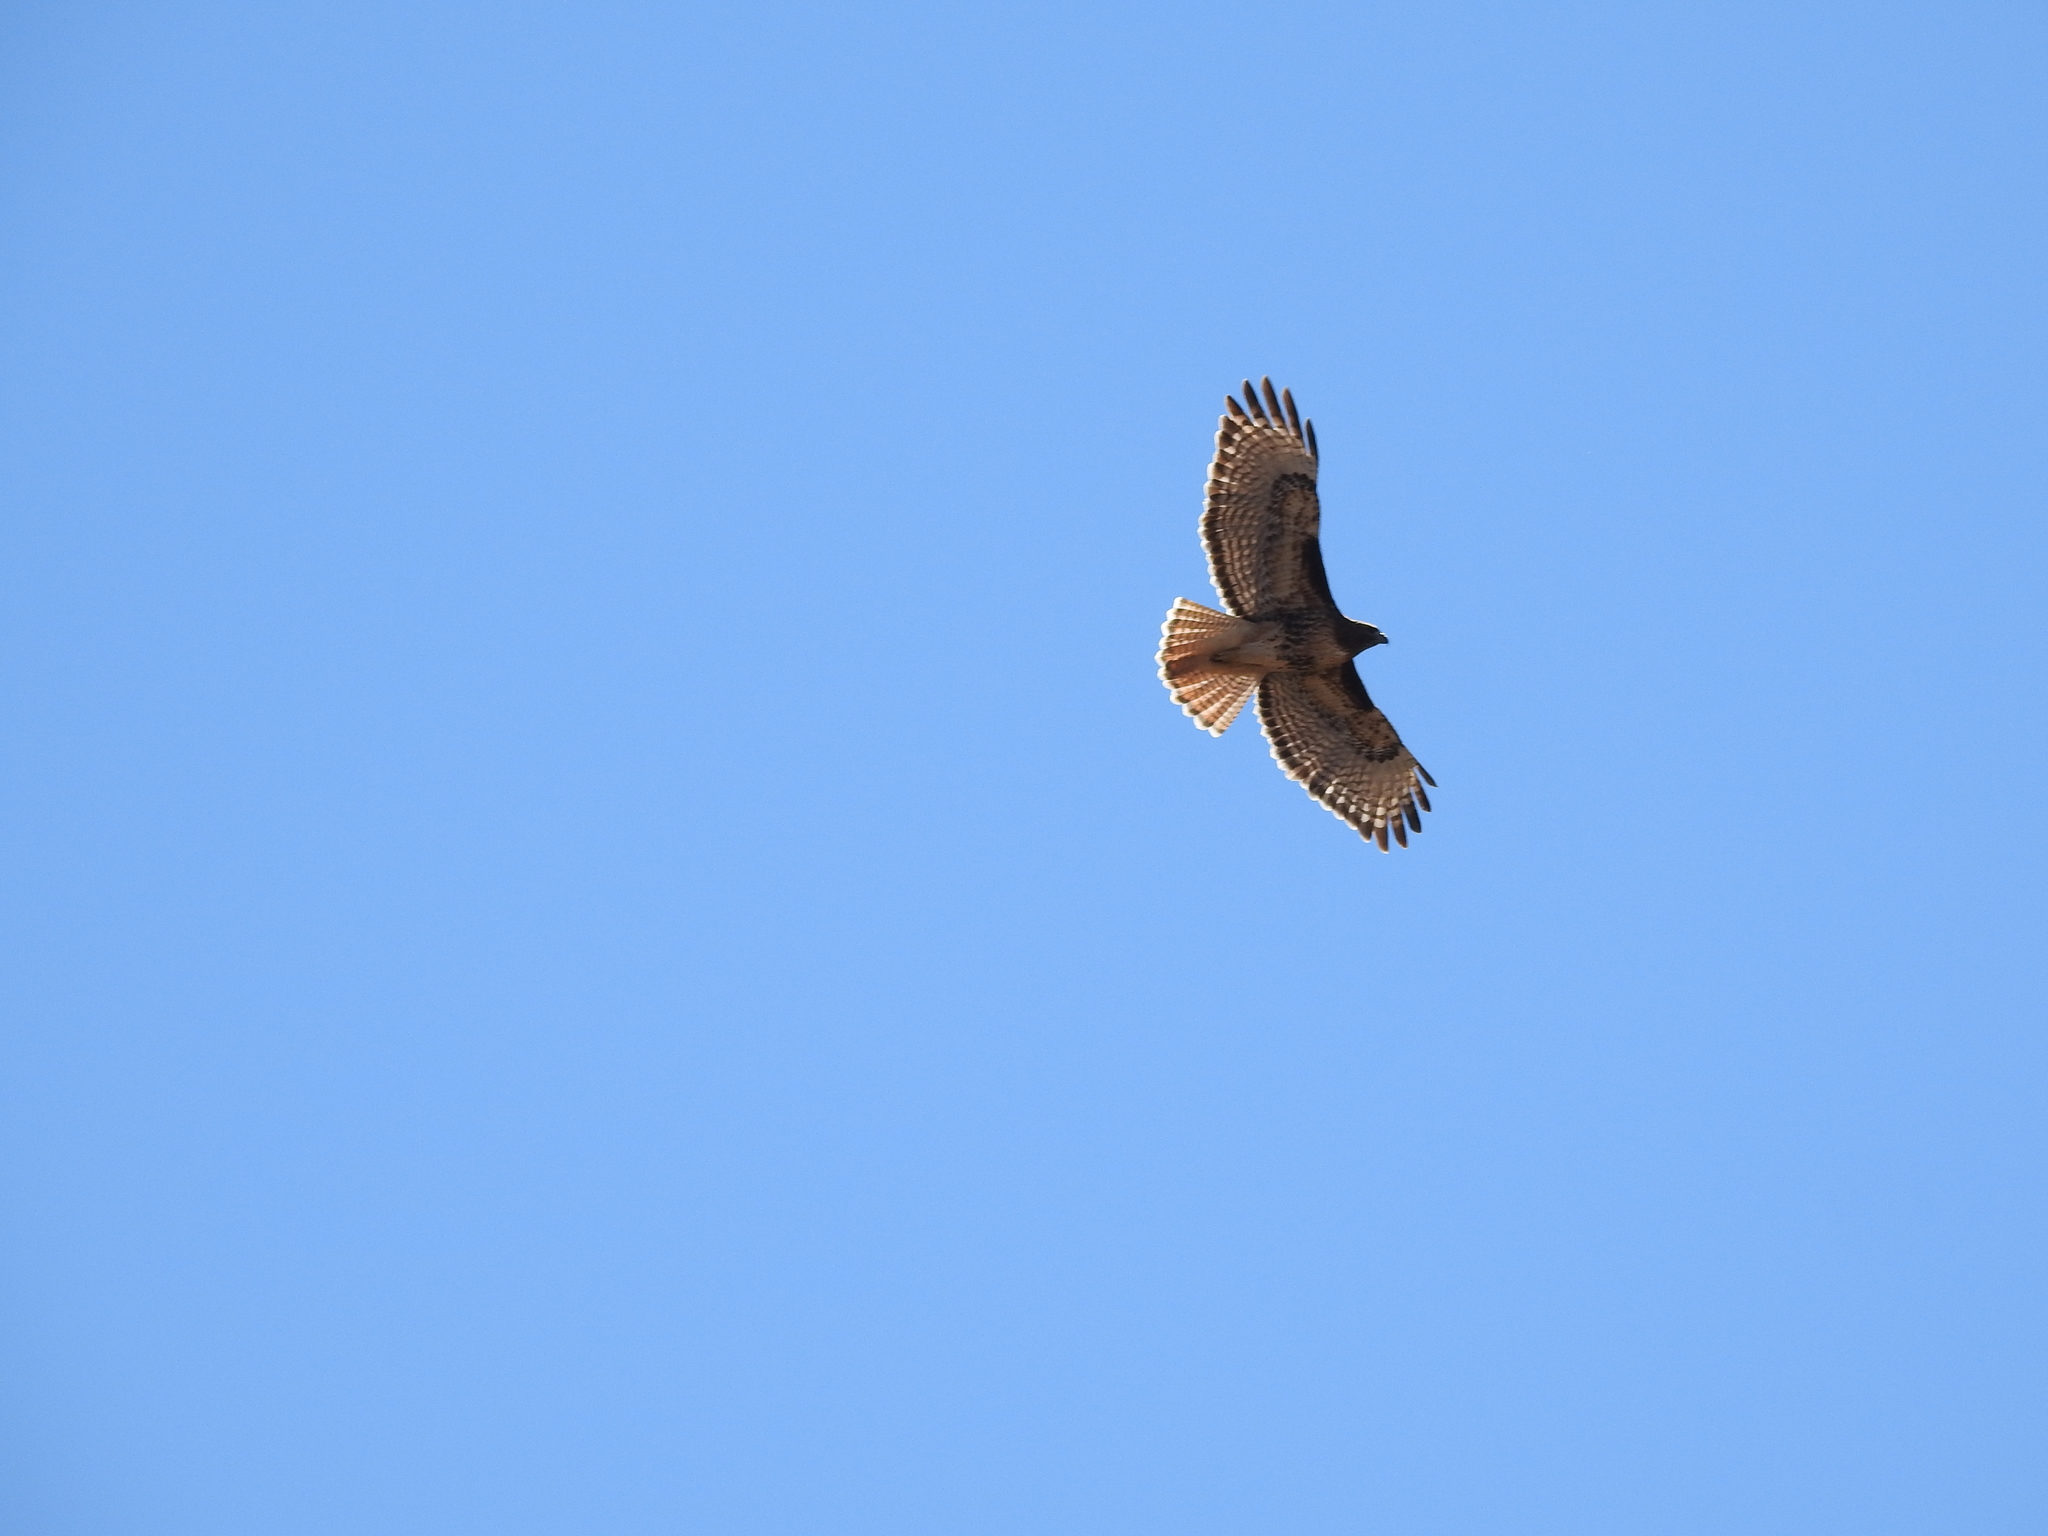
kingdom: Animalia
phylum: Chordata
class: Aves
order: Accipitriformes
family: Accipitridae
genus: Buteo
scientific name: Buteo jamaicensis
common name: Red-tailed hawk
